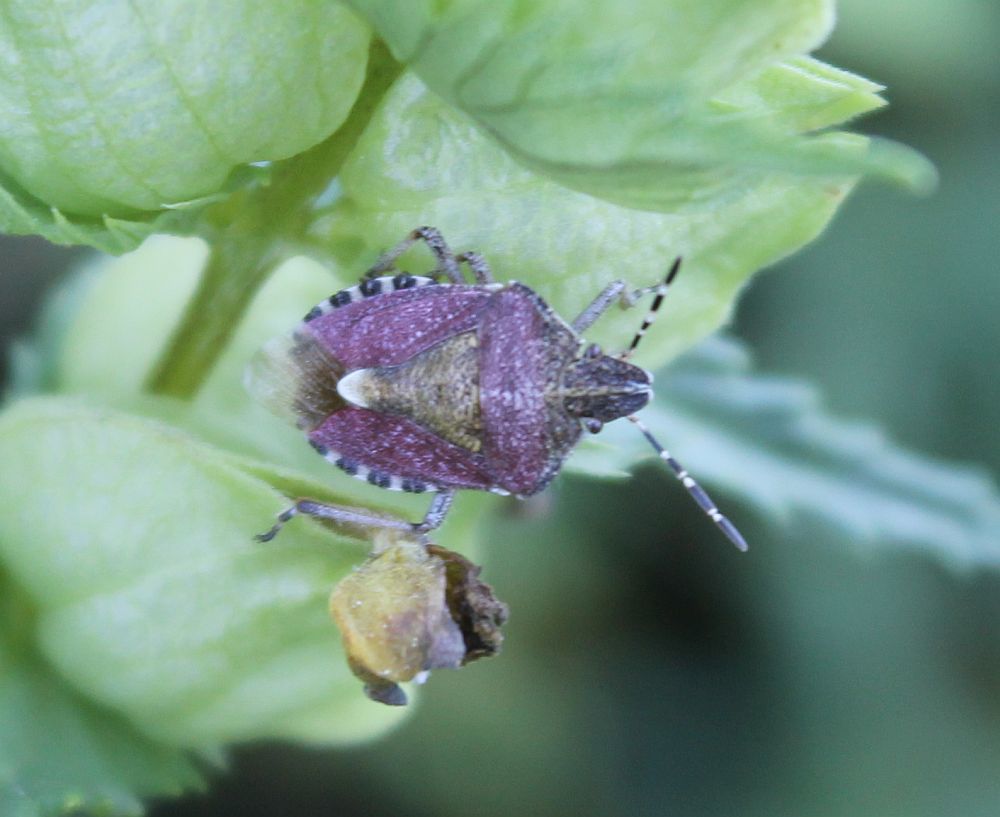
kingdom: Animalia
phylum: Arthropoda
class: Insecta
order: Hemiptera
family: Pentatomidae
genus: Dolycoris
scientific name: Dolycoris baccarum
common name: Sloe bug
